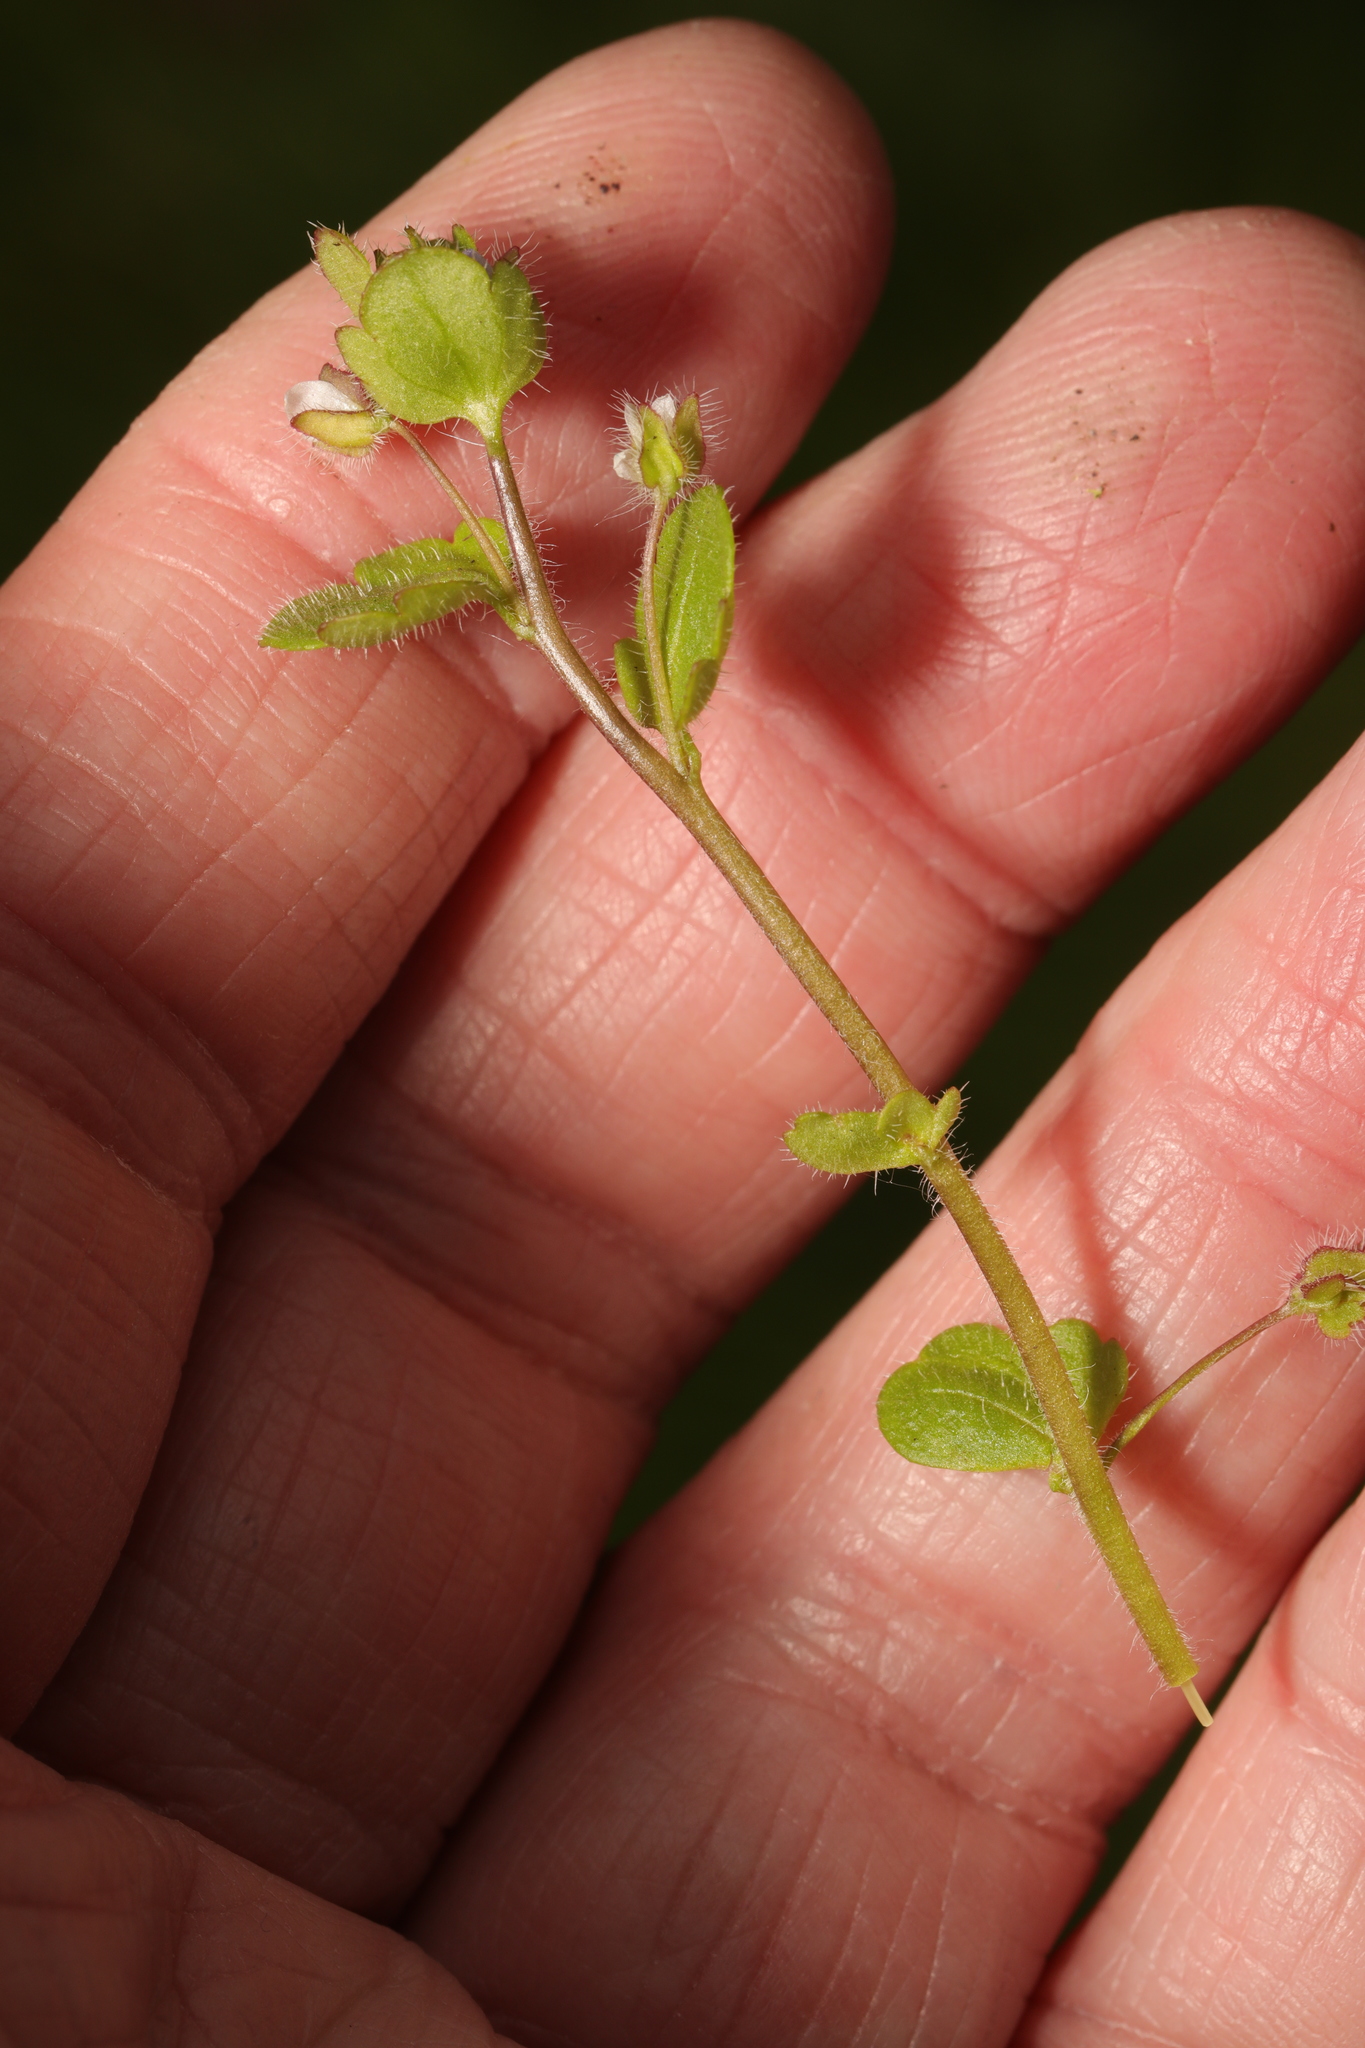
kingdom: Plantae
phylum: Tracheophyta
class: Magnoliopsida
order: Lamiales
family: Plantaginaceae
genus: Veronica
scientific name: Veronica sublobata
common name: False ivy-leaved speedwell
